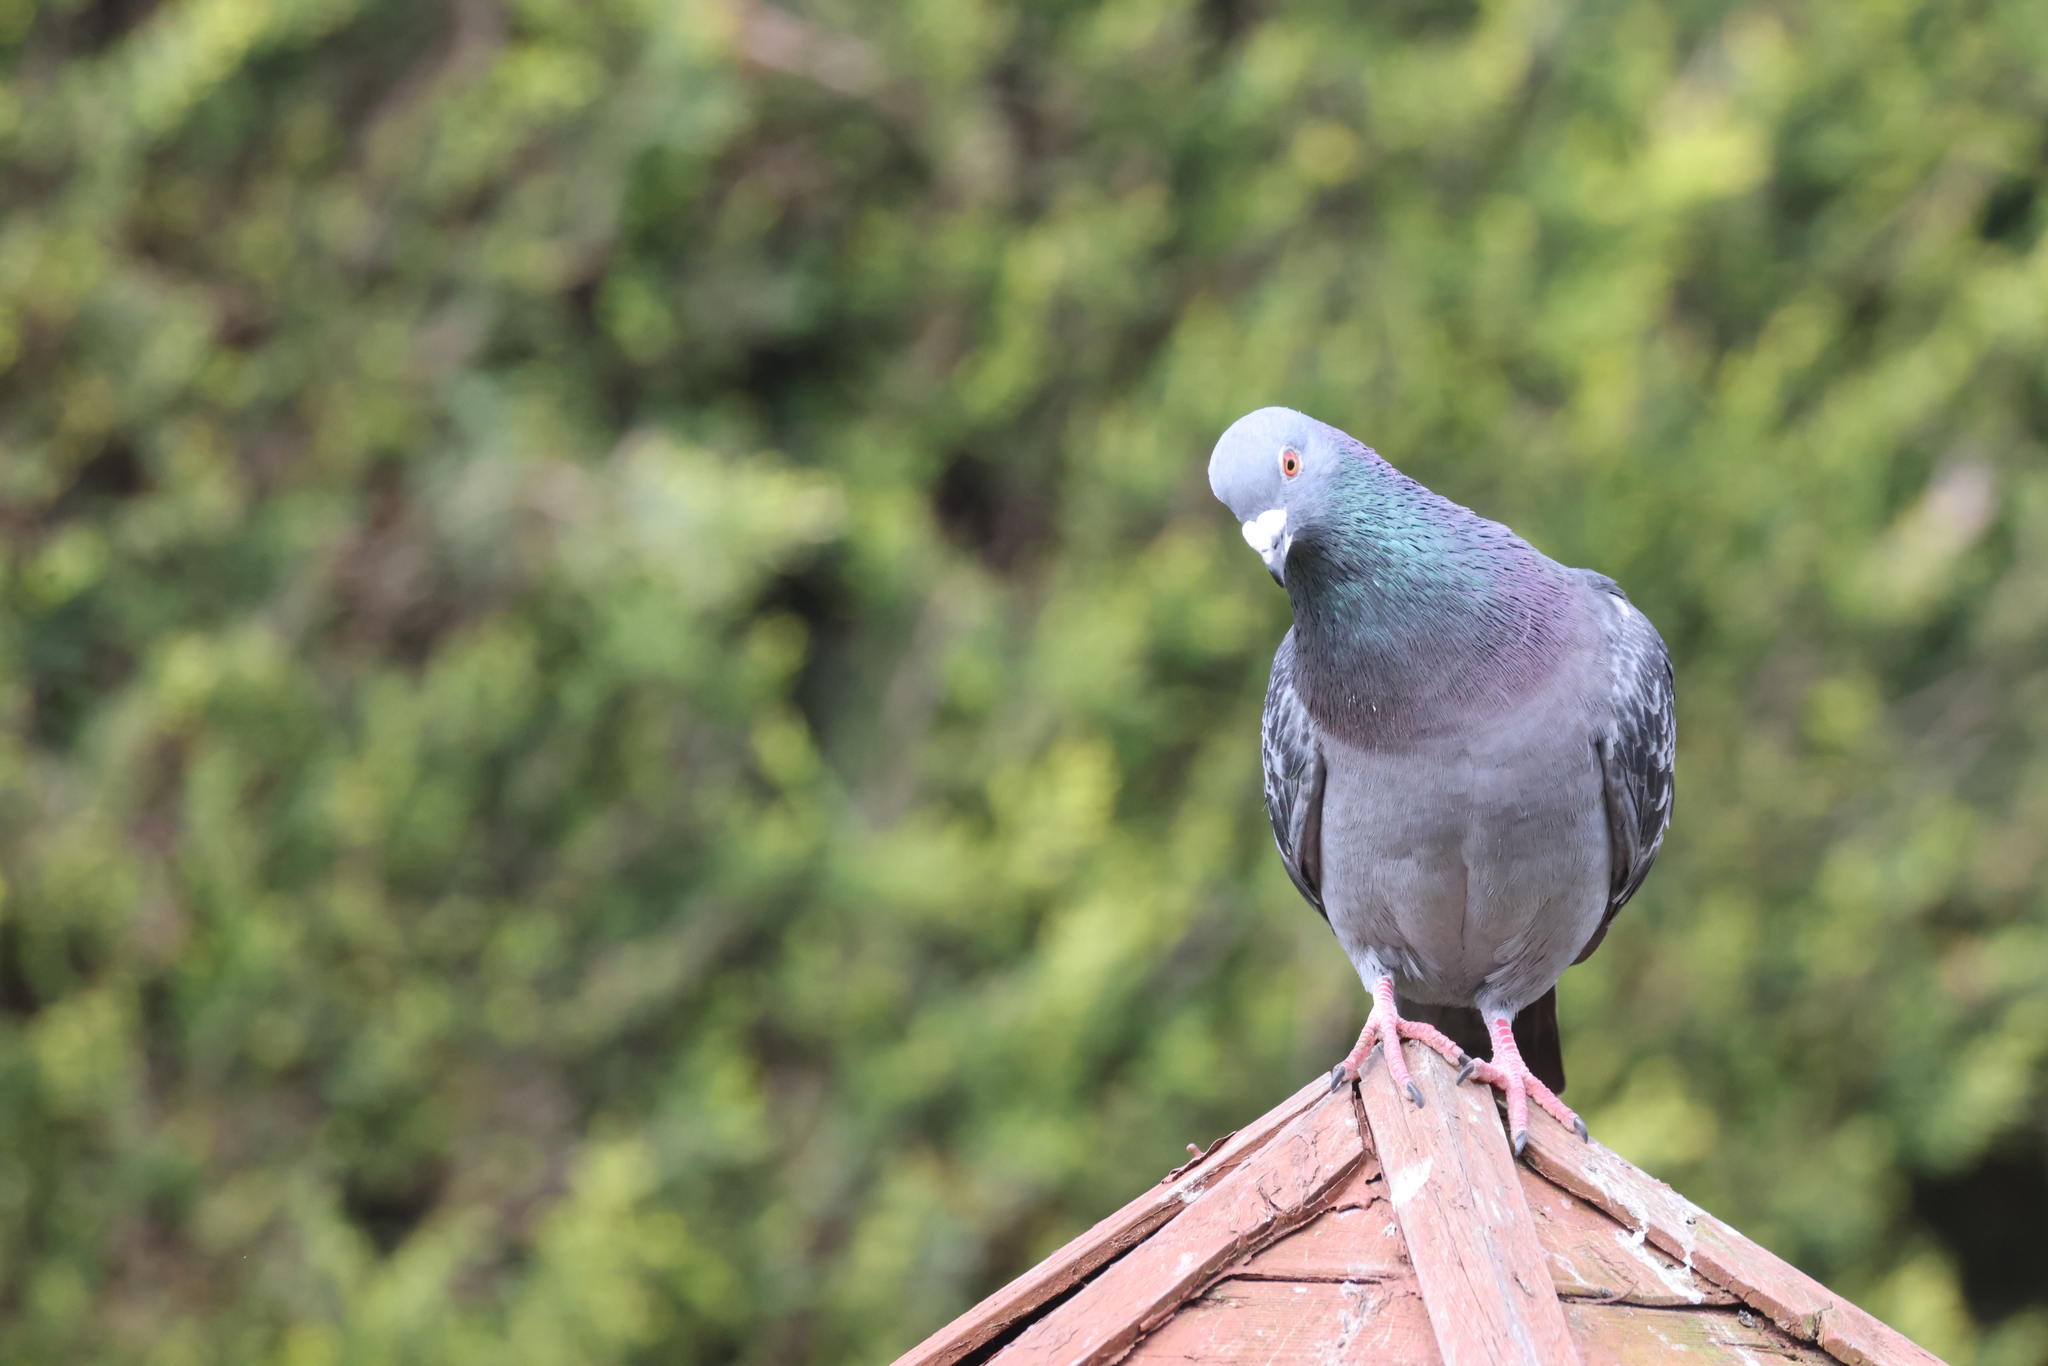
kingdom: Animalia
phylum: Chordata
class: Aves
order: Columbiformes
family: Columbidae
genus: Columba
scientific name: Columba livia
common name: Rock pigeon
